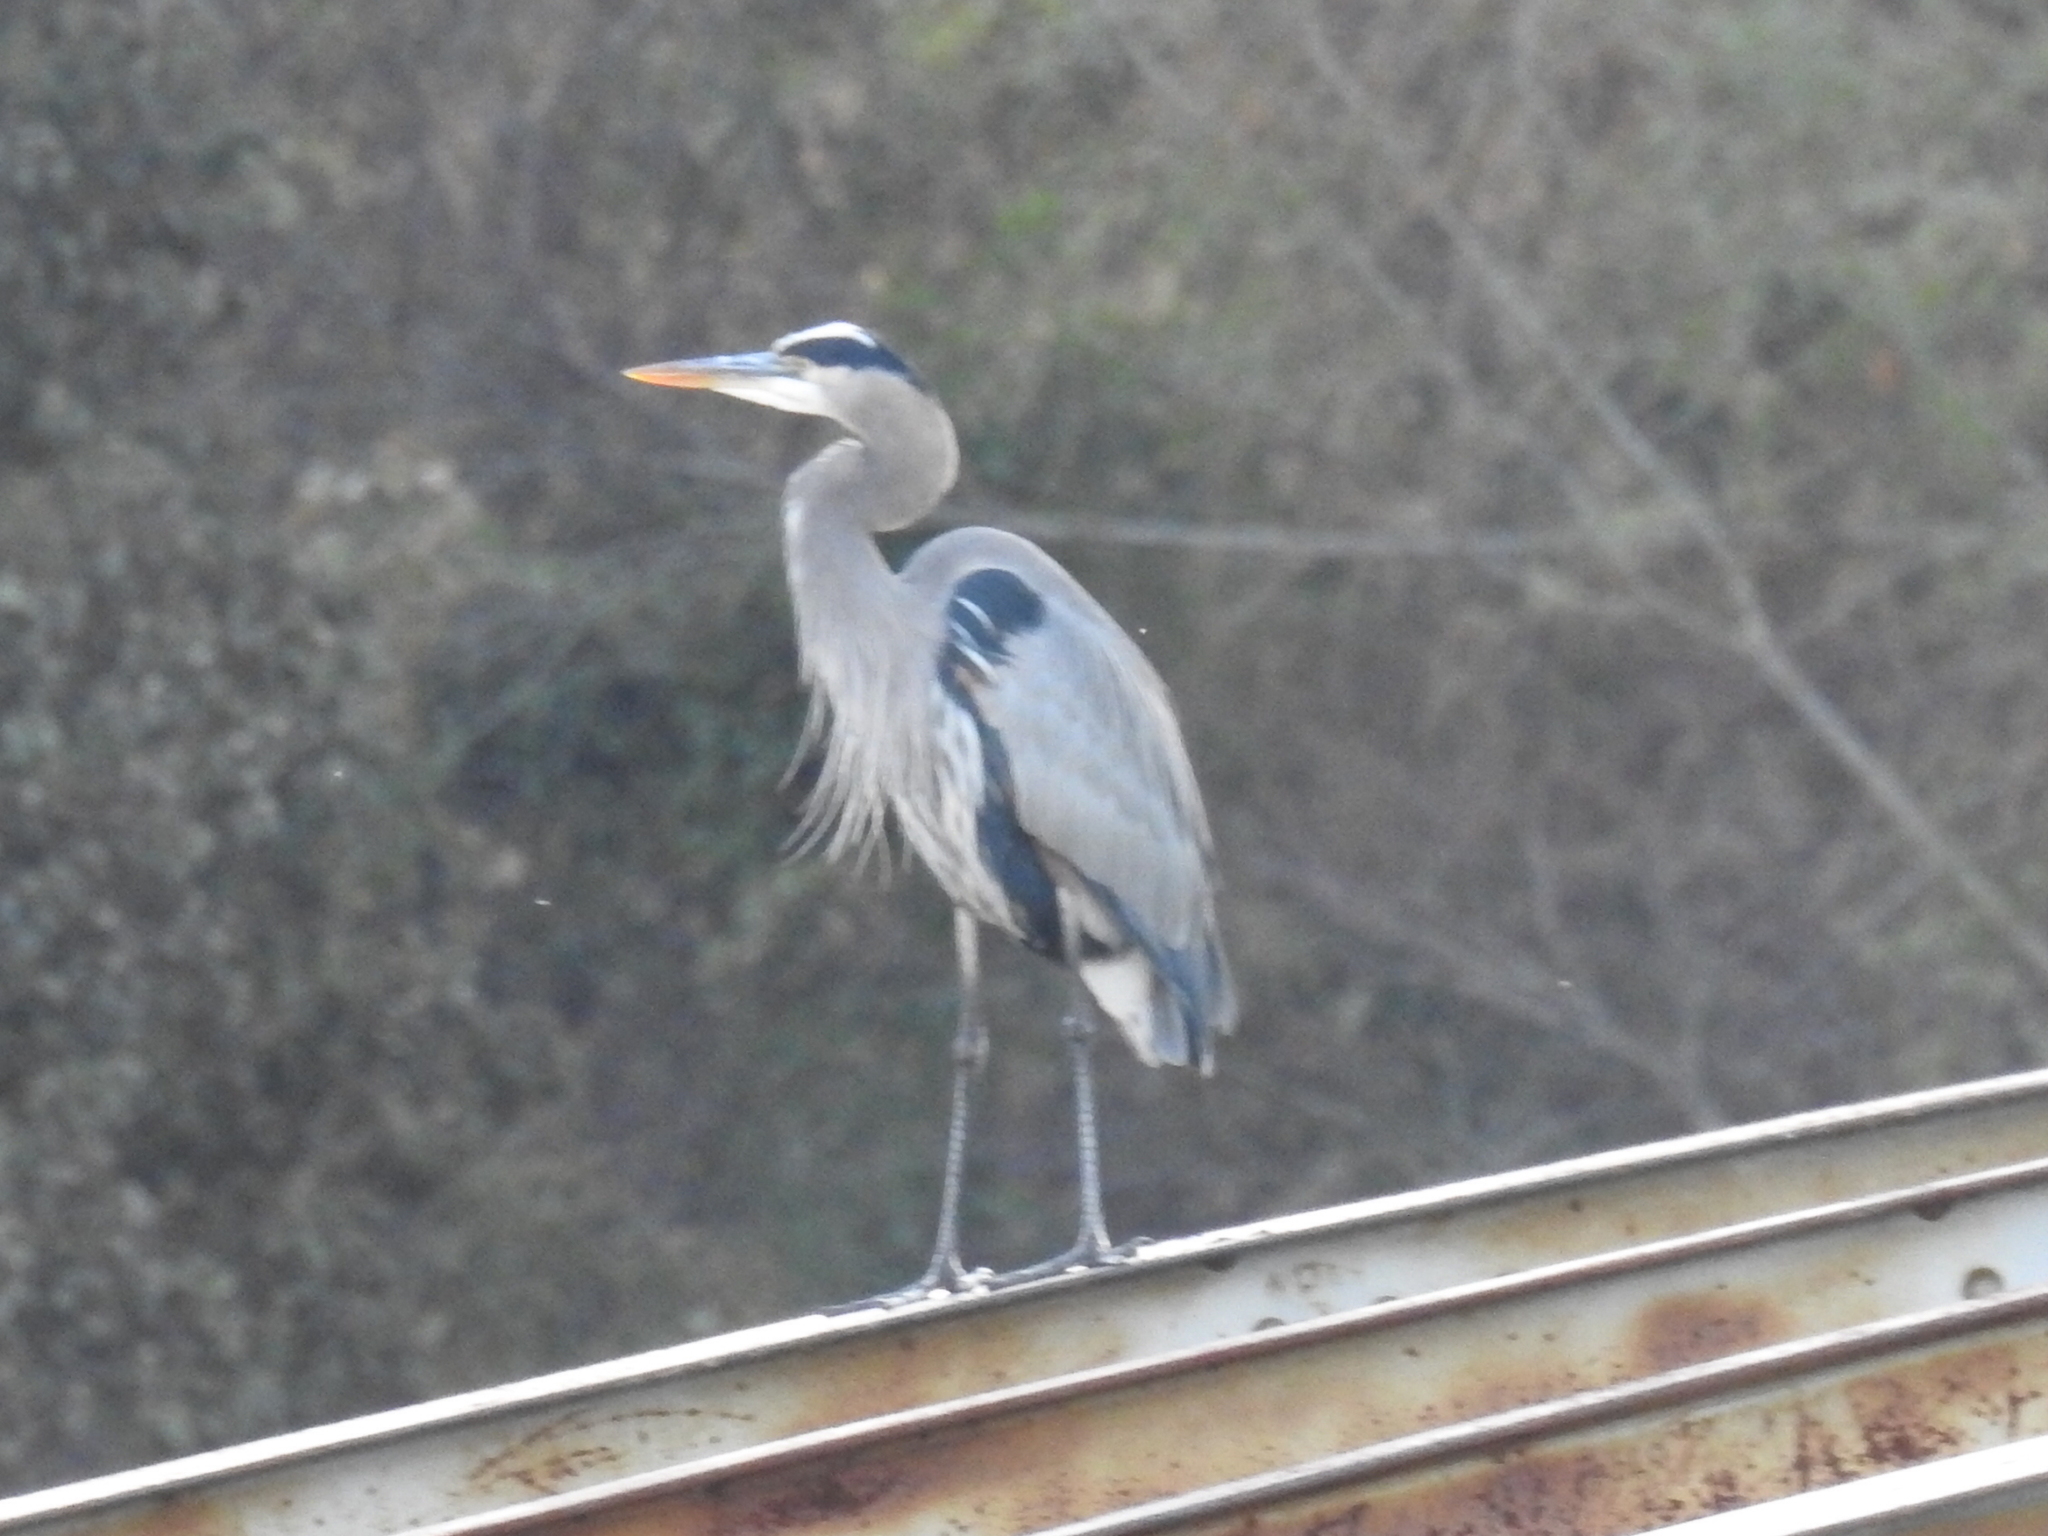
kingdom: Animalia
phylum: Chordata
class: Aves
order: Pelecaniformes
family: Ardeidae
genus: Ardea
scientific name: Ardea herodias
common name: Great blue heron
